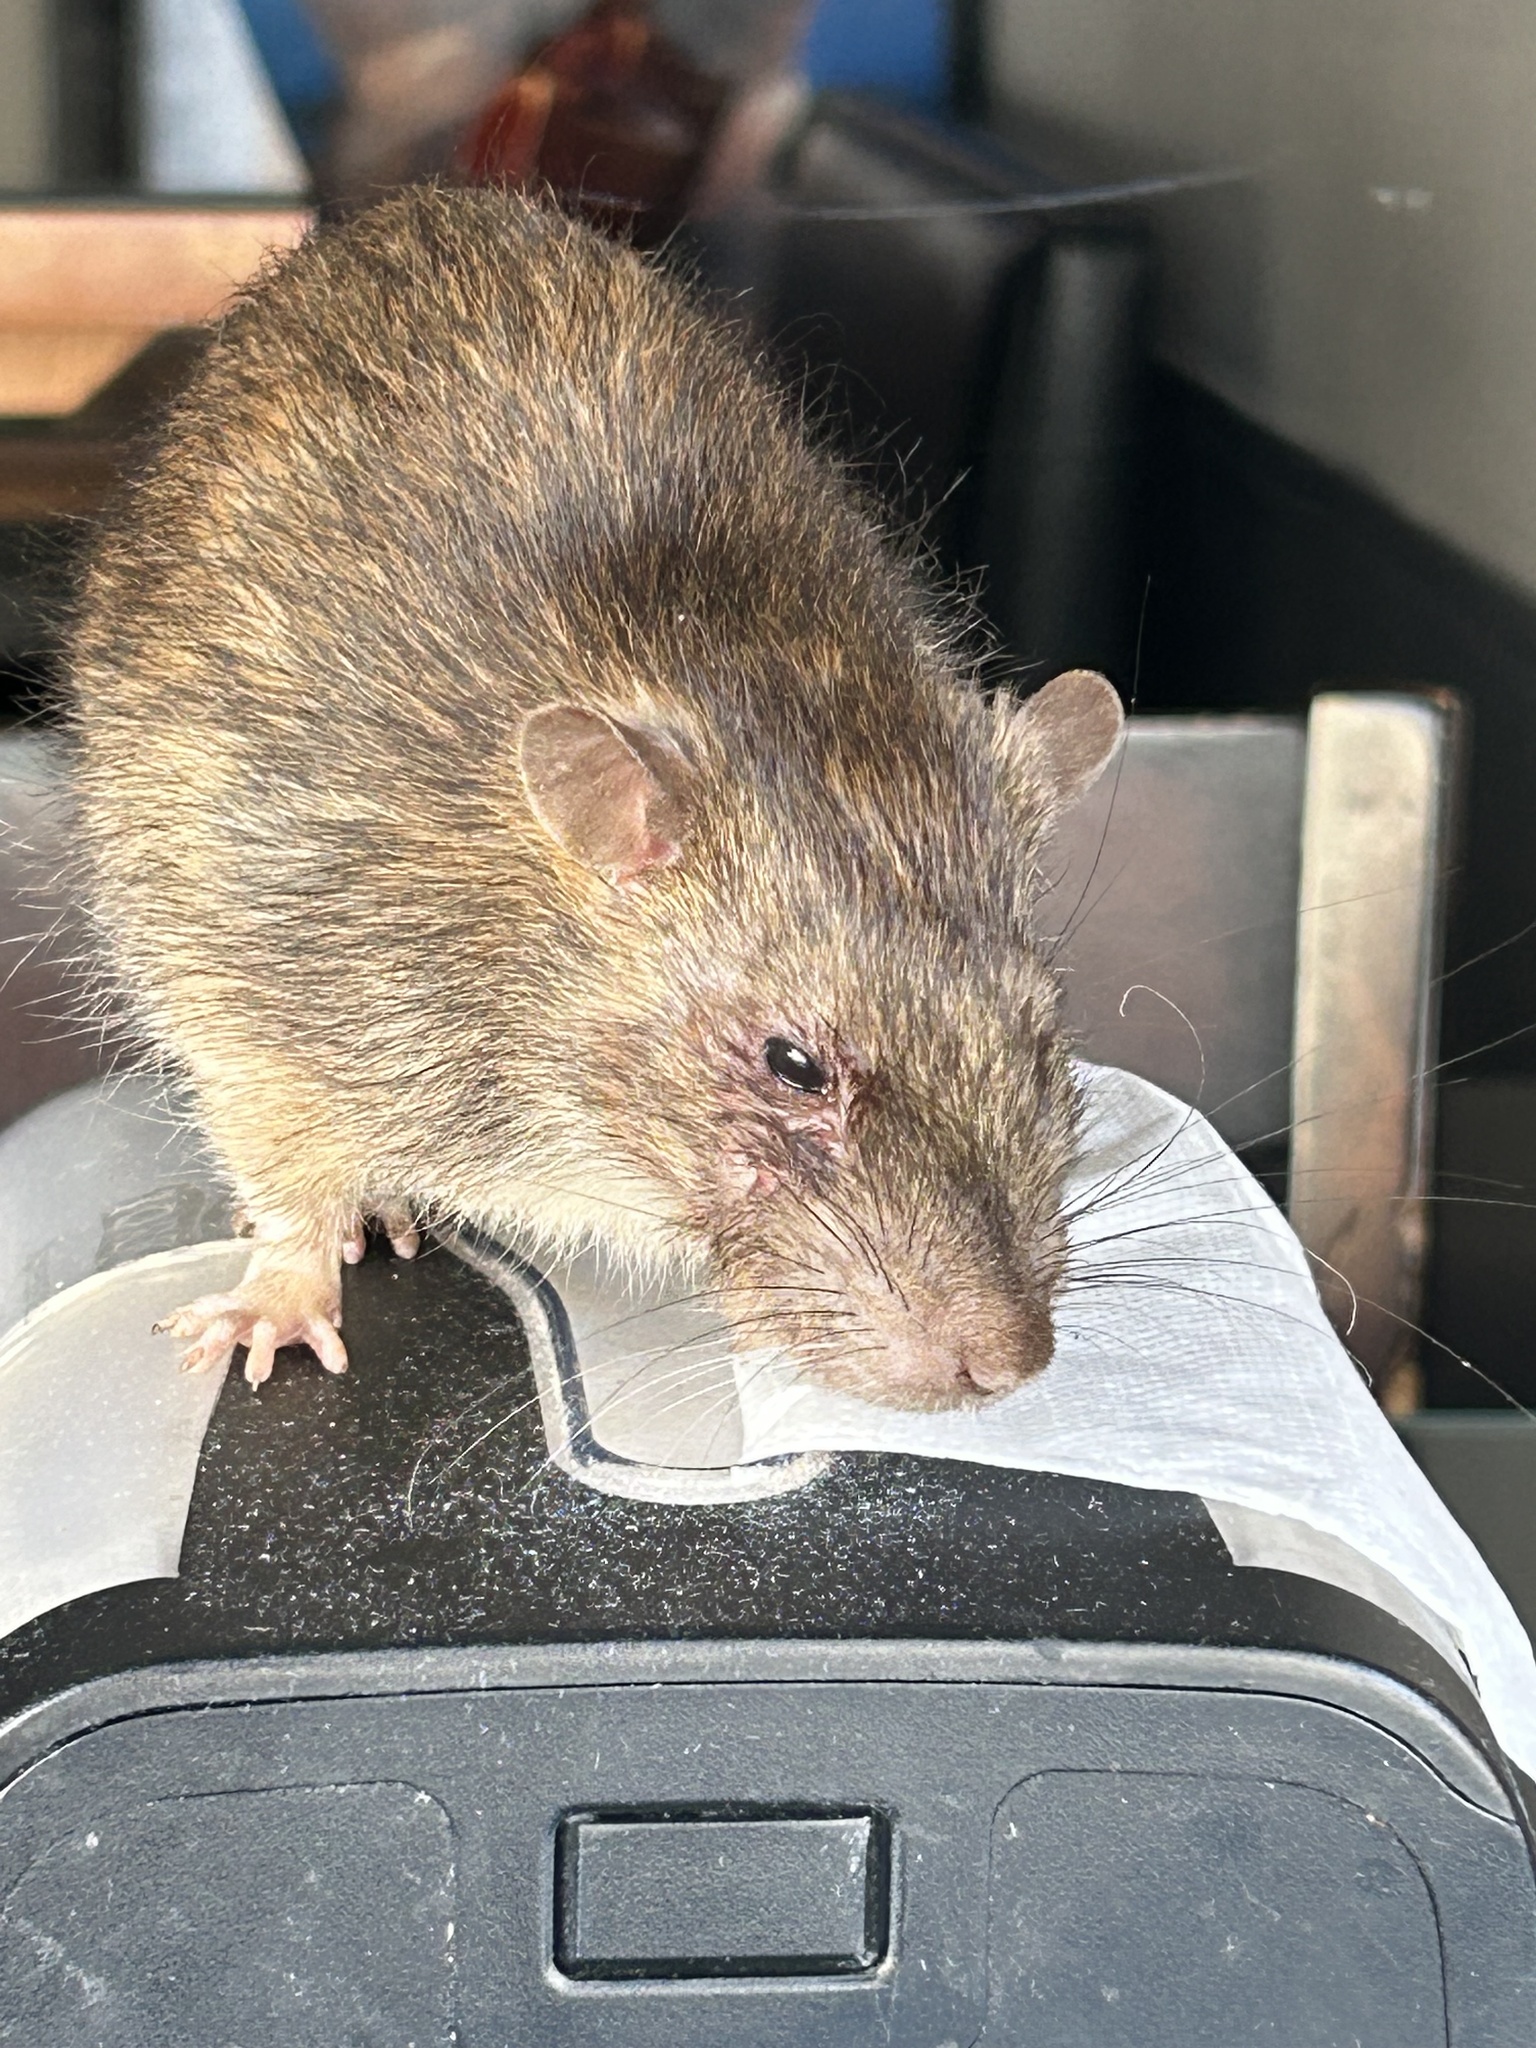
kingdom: Animalia
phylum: Chordata
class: Mammalia
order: Rodentia
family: Muridae
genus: Rattus
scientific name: Rattus norvegicus
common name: Brown rat
